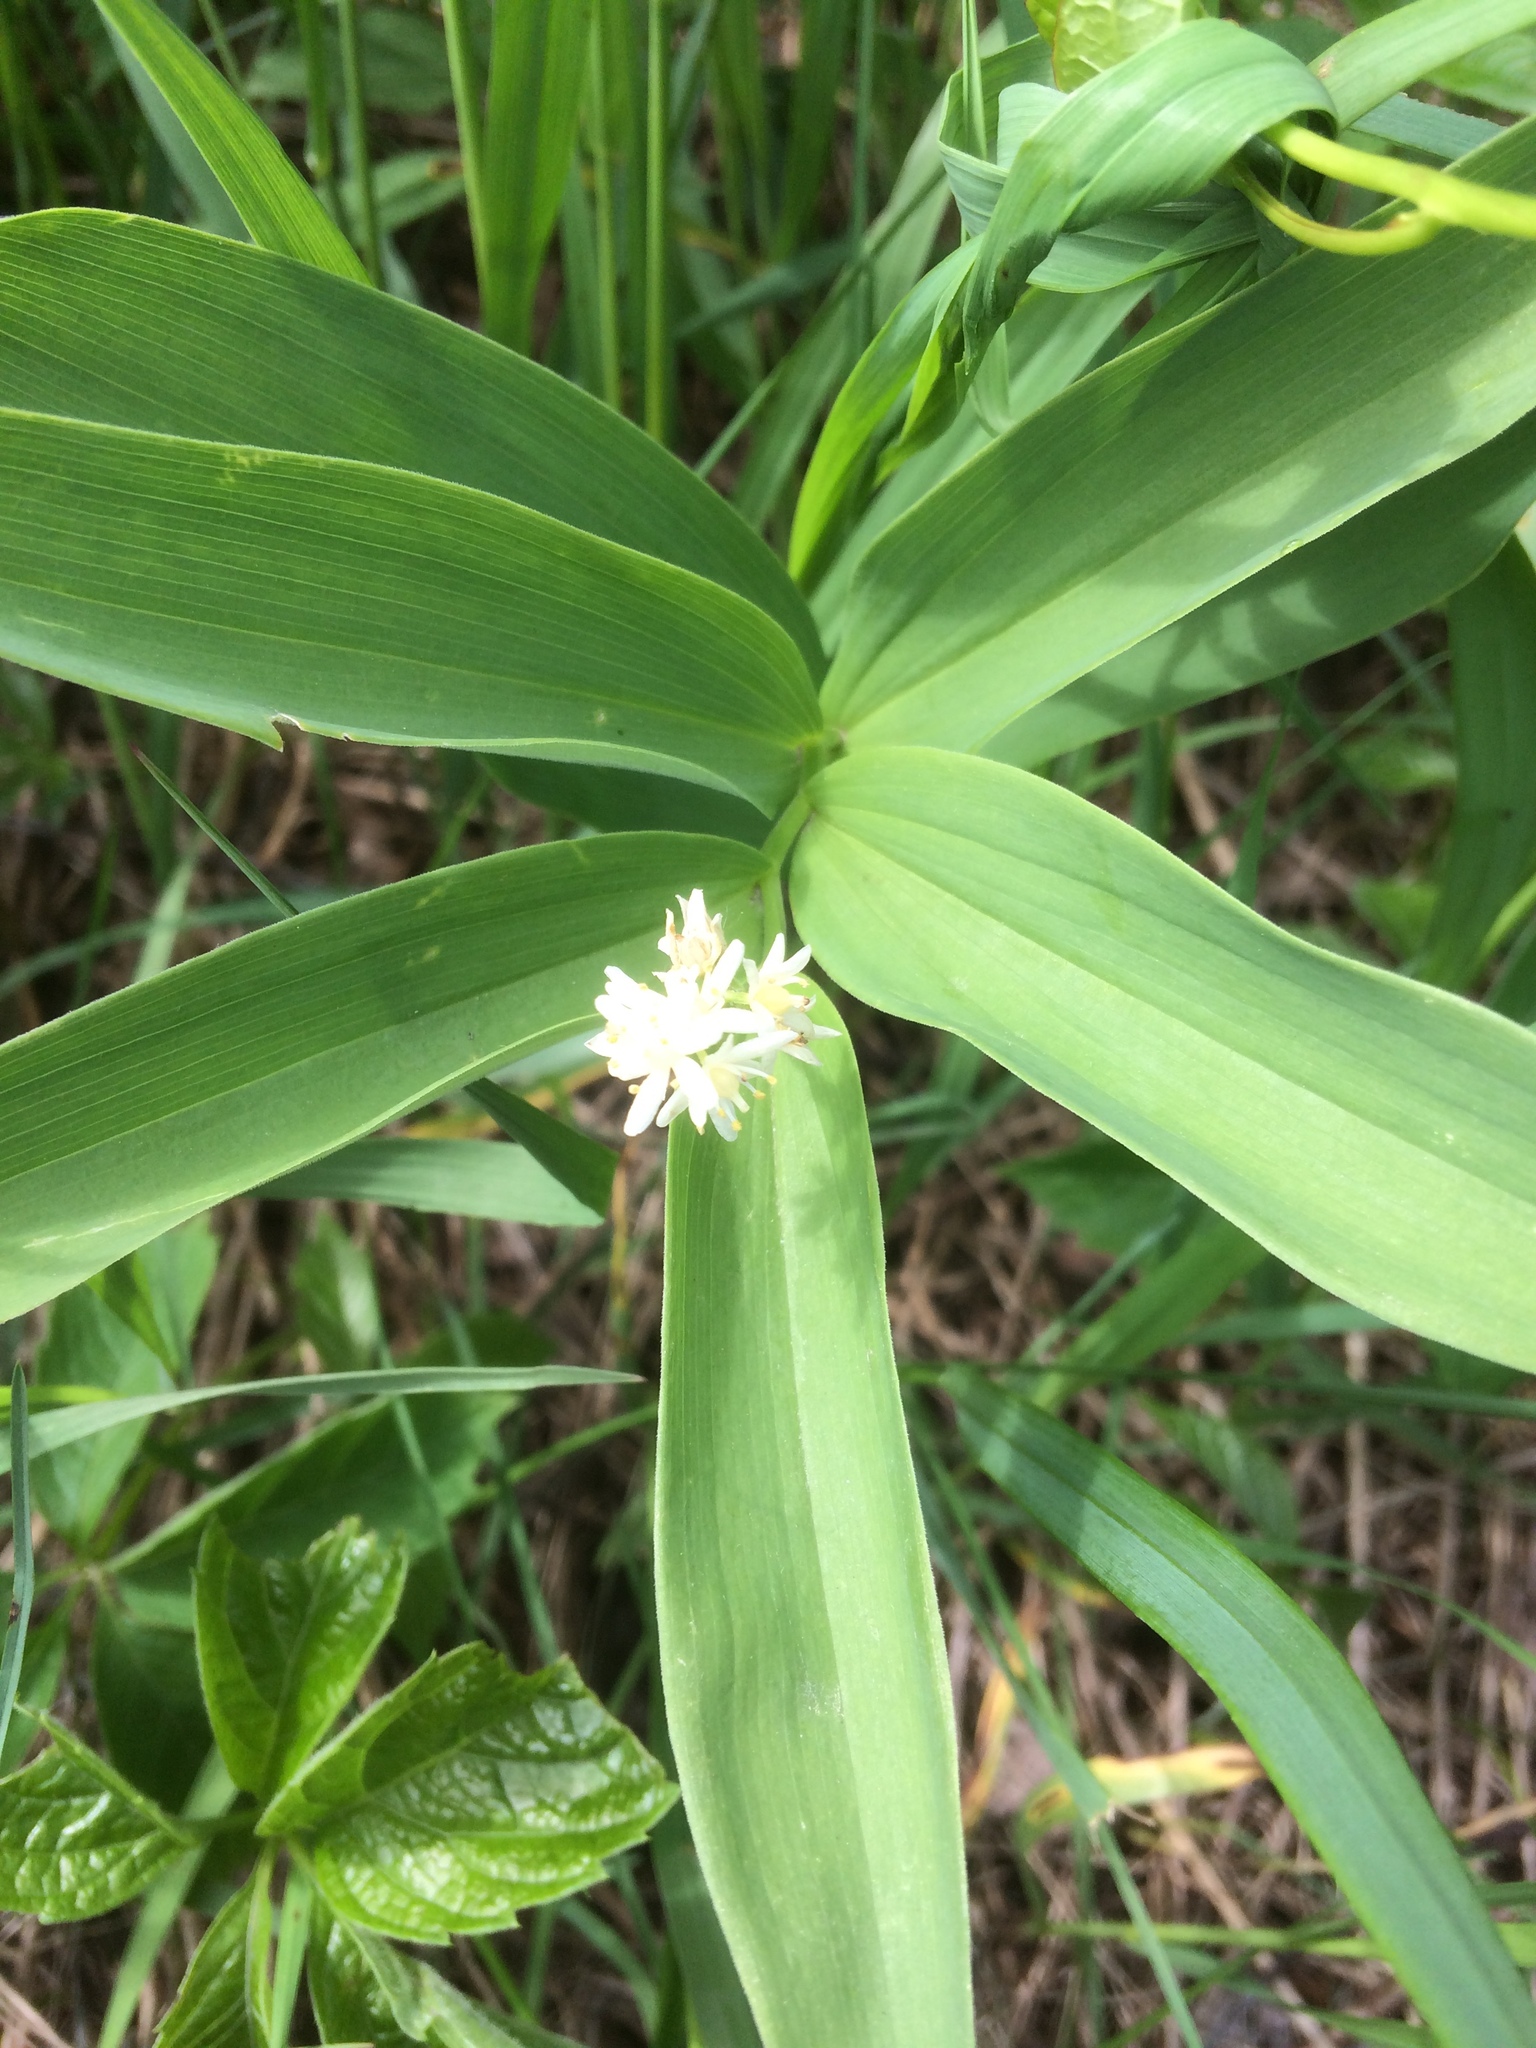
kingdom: Plantae
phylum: Tracheophyta
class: Liliopsida
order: Asparagales
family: Asparagaceae
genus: Maianthemum
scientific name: Maianthemum stellatum
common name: Little false solomon's seal
